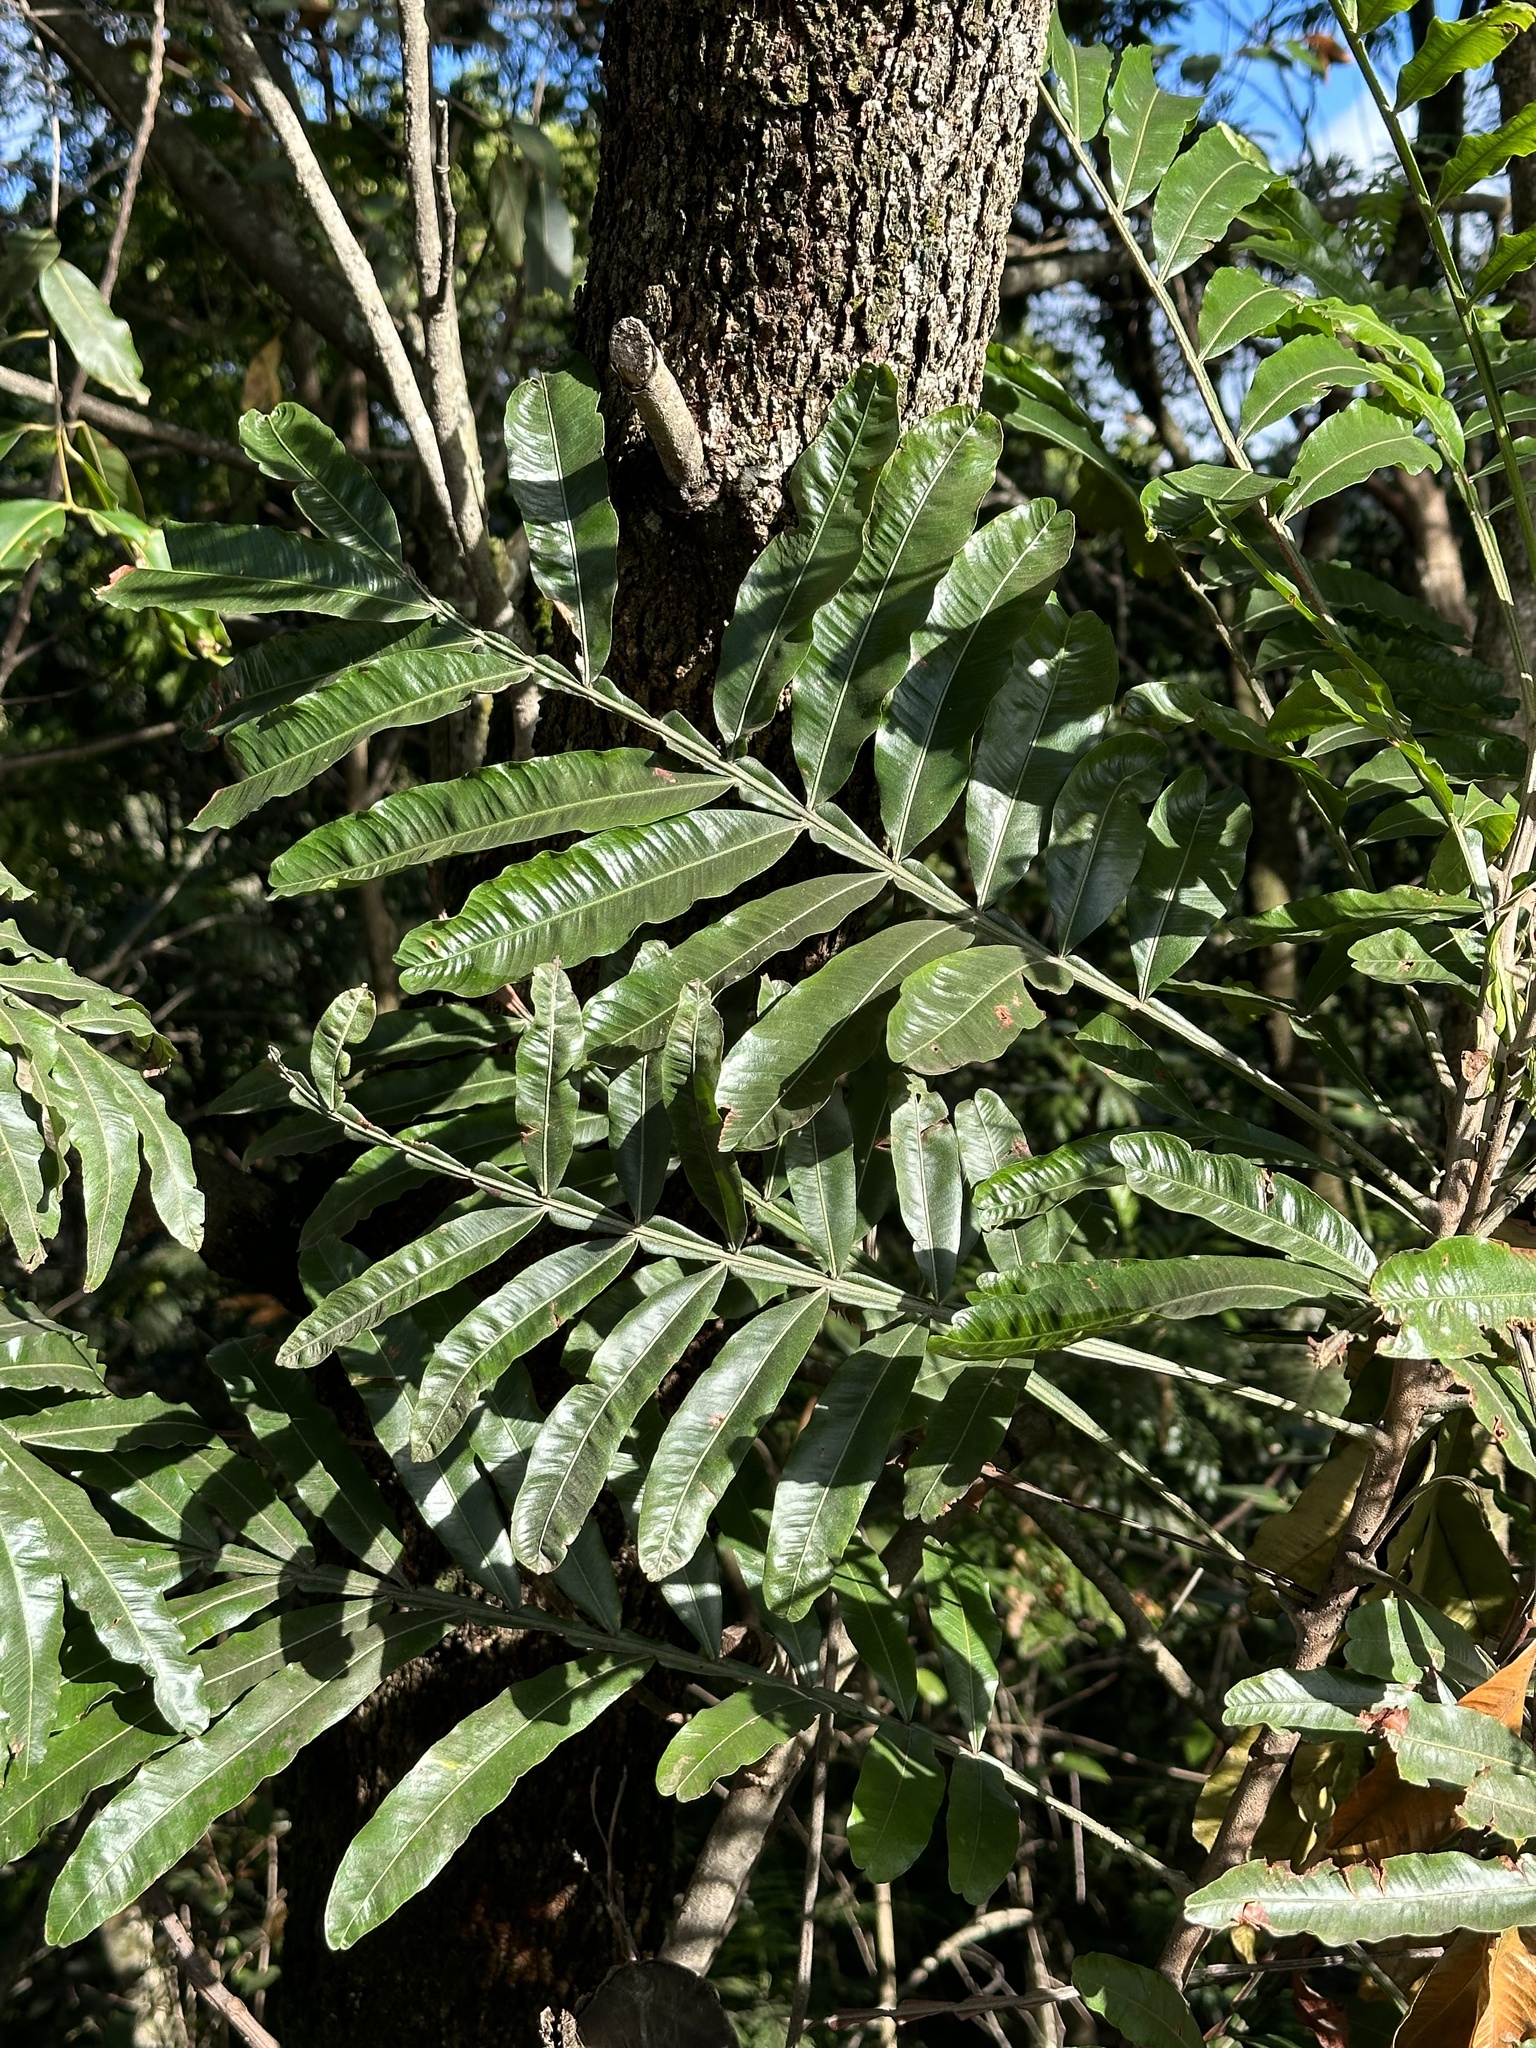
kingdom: Plantae
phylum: Tracheophyta
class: Magnoliopsida
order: Sapindales
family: Sapindaceae
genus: Filicium
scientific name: Filicium decipiens
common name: Ferntree
